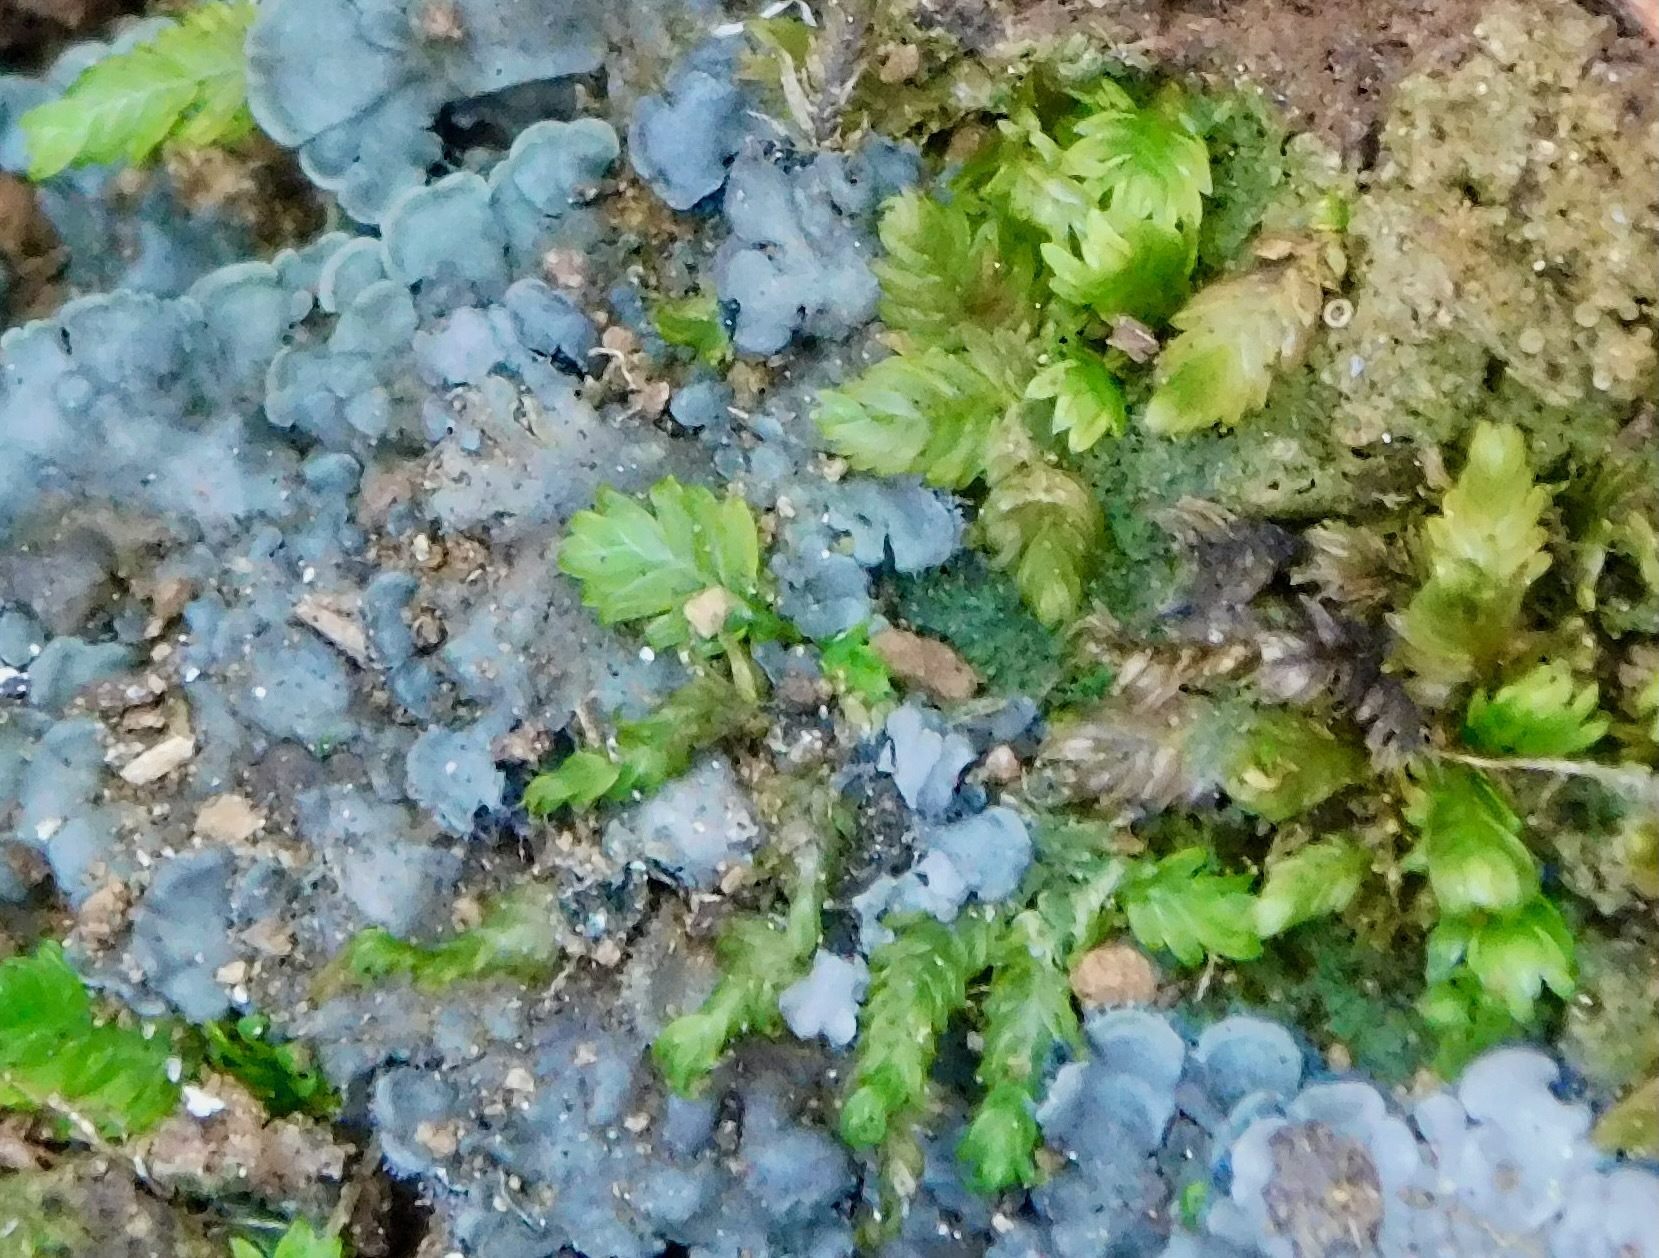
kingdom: Plantae
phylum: Bryophyta
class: Bryopsida
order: Dicranales
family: Fissidentaceae
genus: Fissidens
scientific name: Fissidens osmundioides
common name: Osmund fissidens moss
